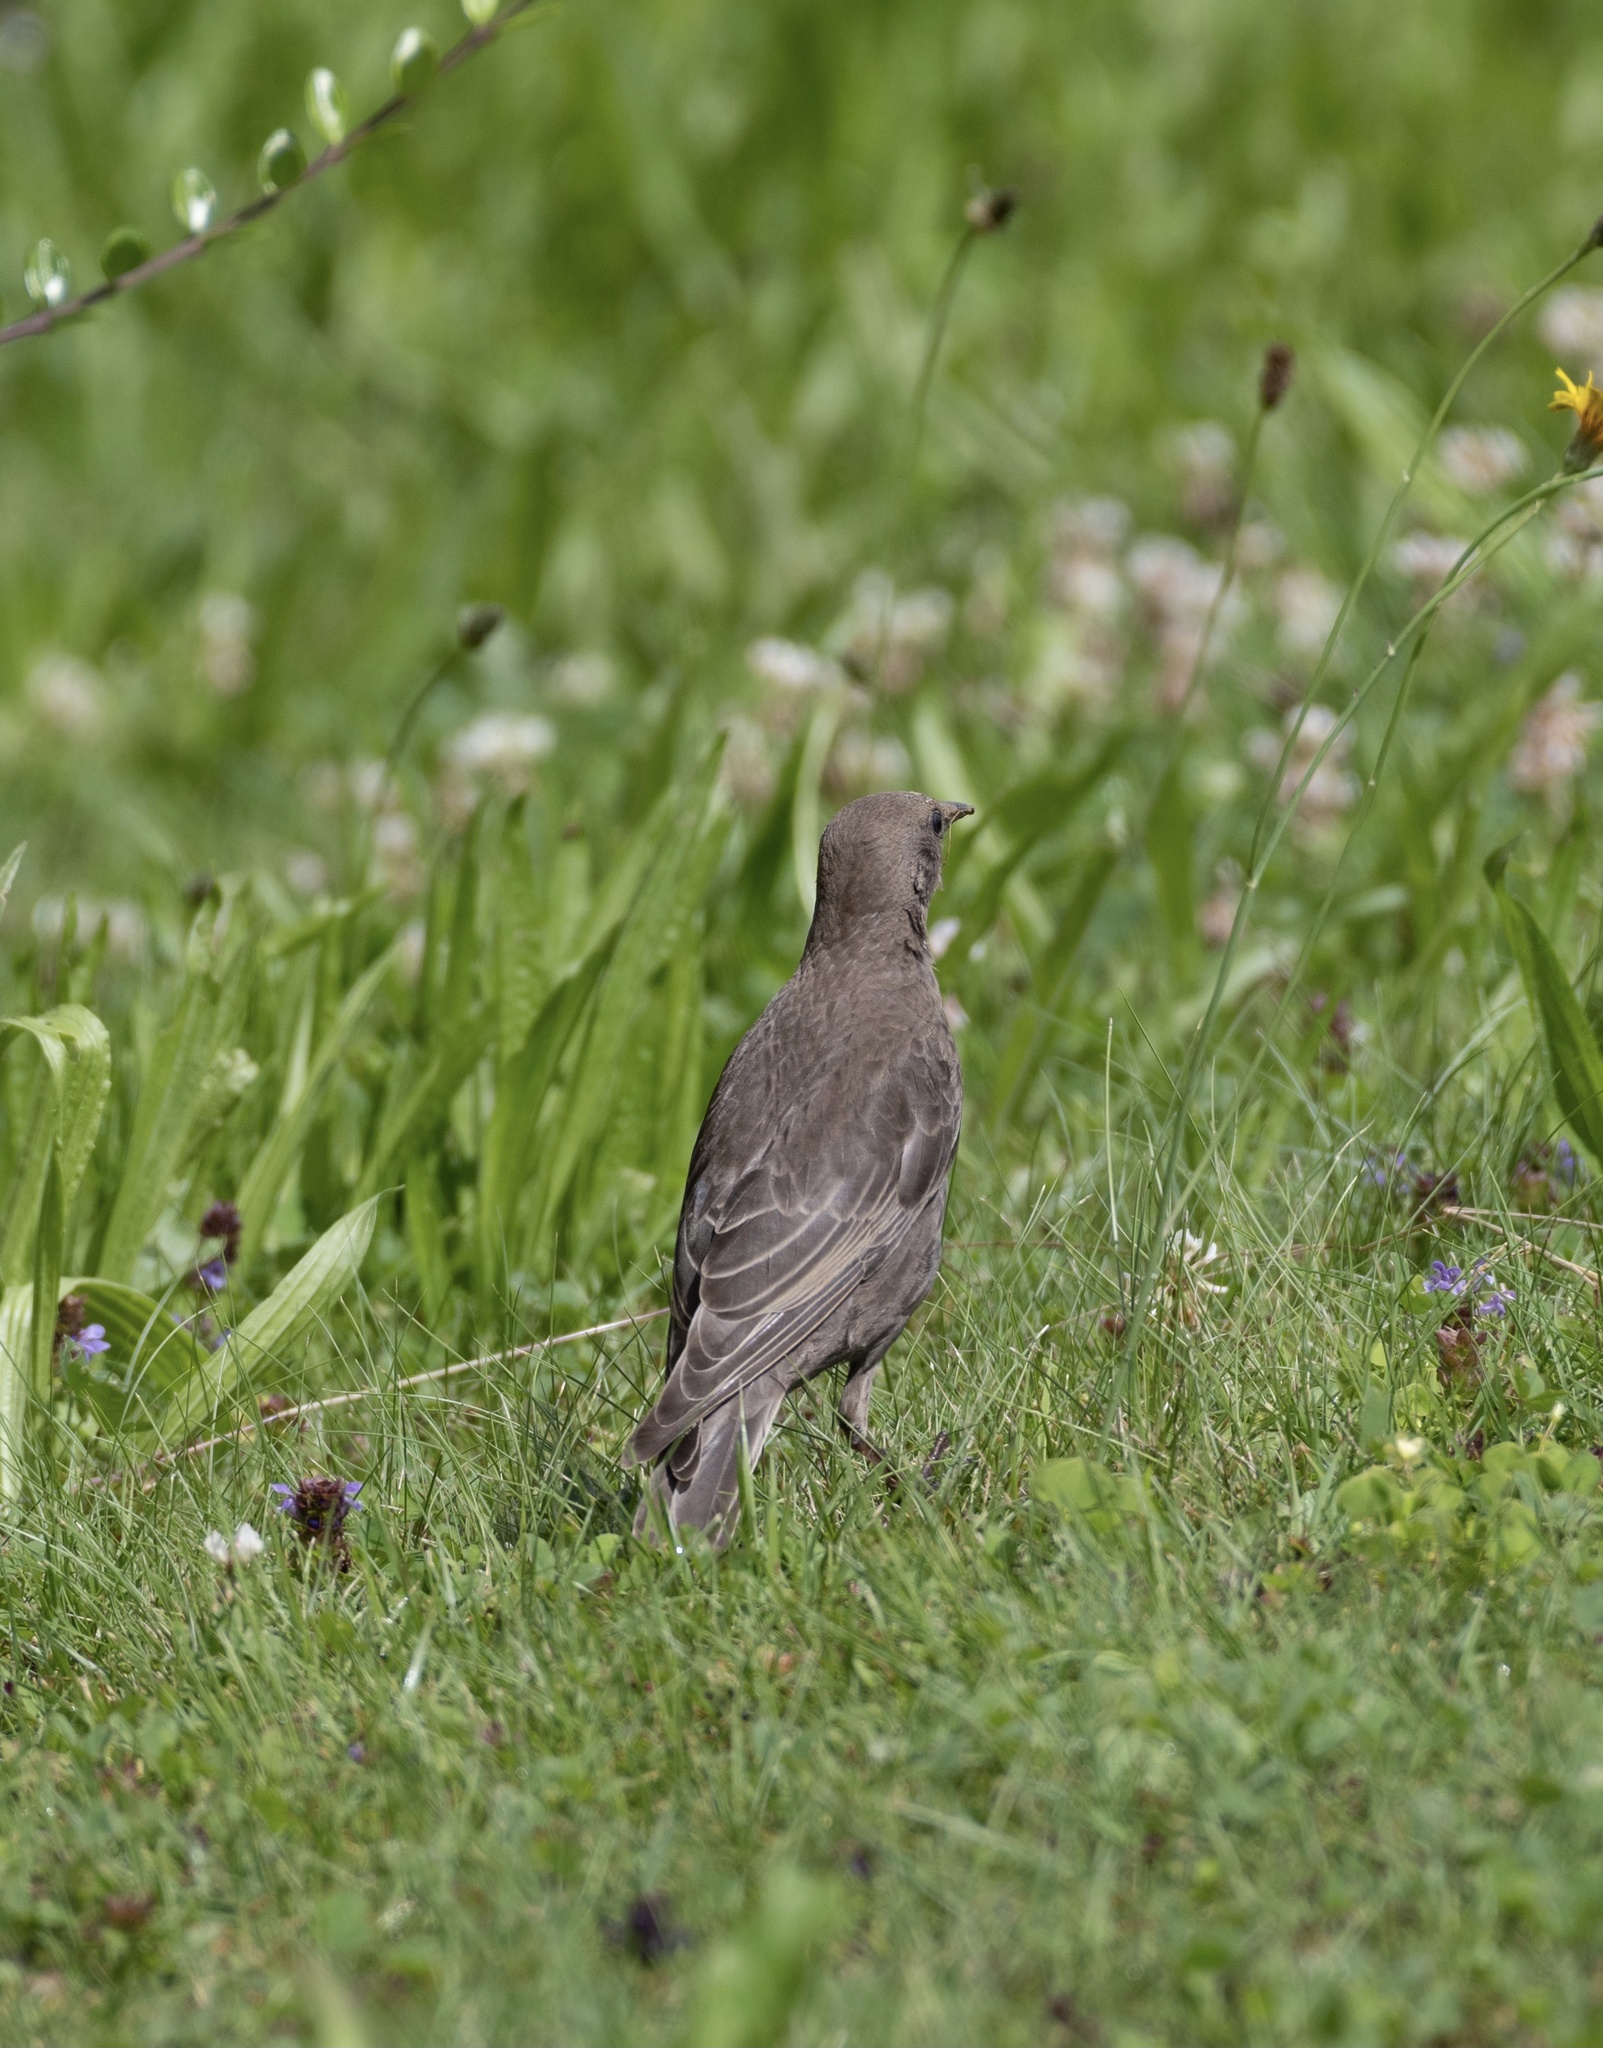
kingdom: Animalia
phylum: Chordata
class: Aves
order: Passeriformes
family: Sturnidae
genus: Sturnus
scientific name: Sturnus vulgaris
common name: Common starling
